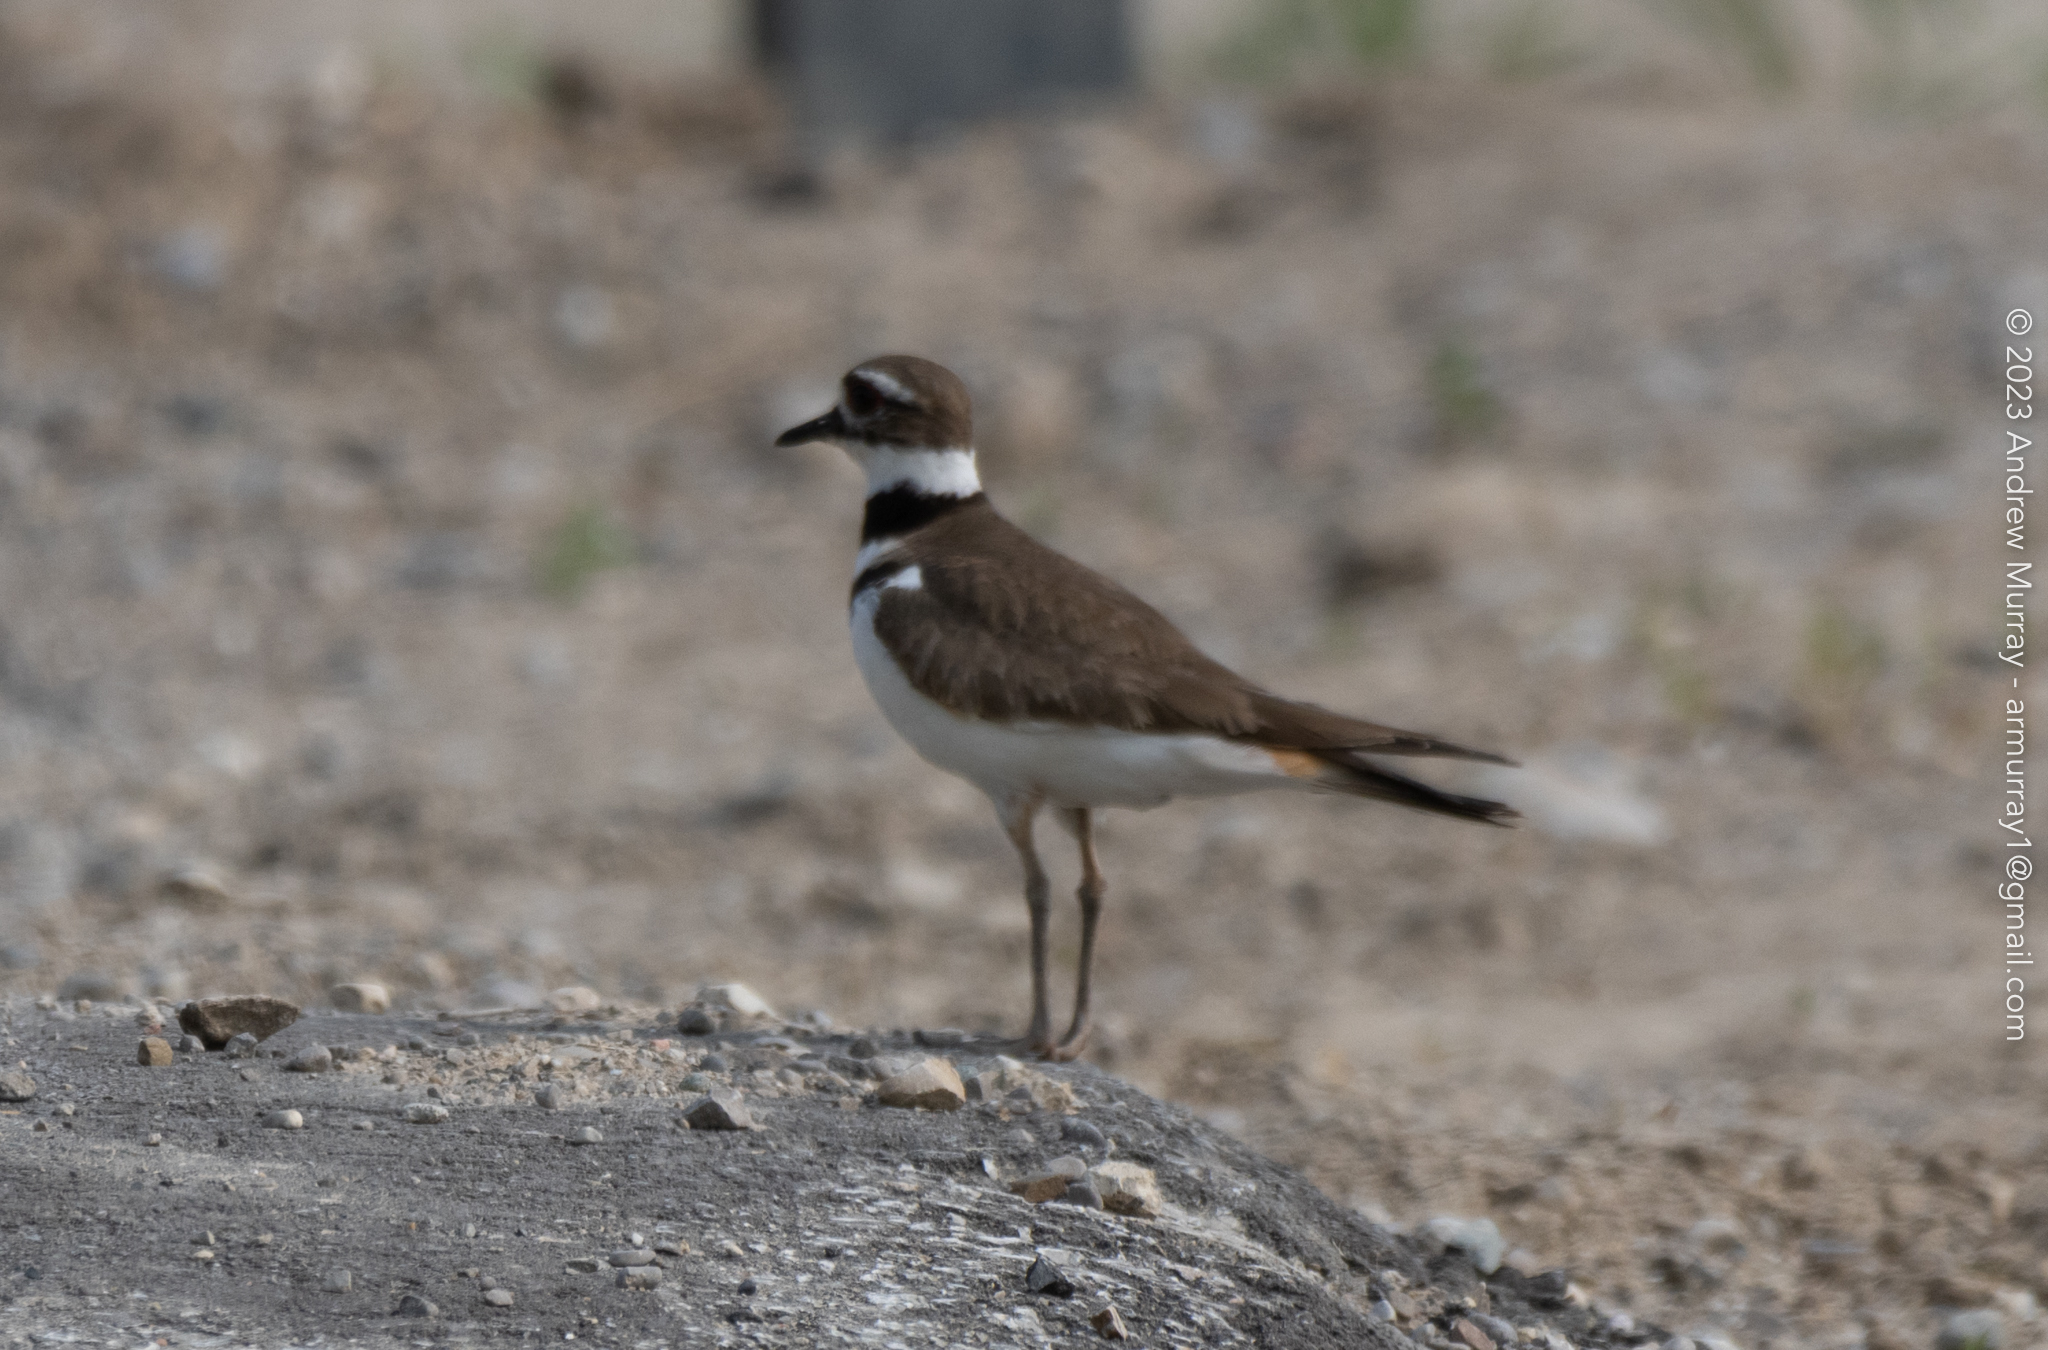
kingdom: Animalia
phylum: Chordata
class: Aves
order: Charadriiformes
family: Charadriidae
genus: Charadrius
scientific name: Charadrius vociferus
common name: Killdeer
